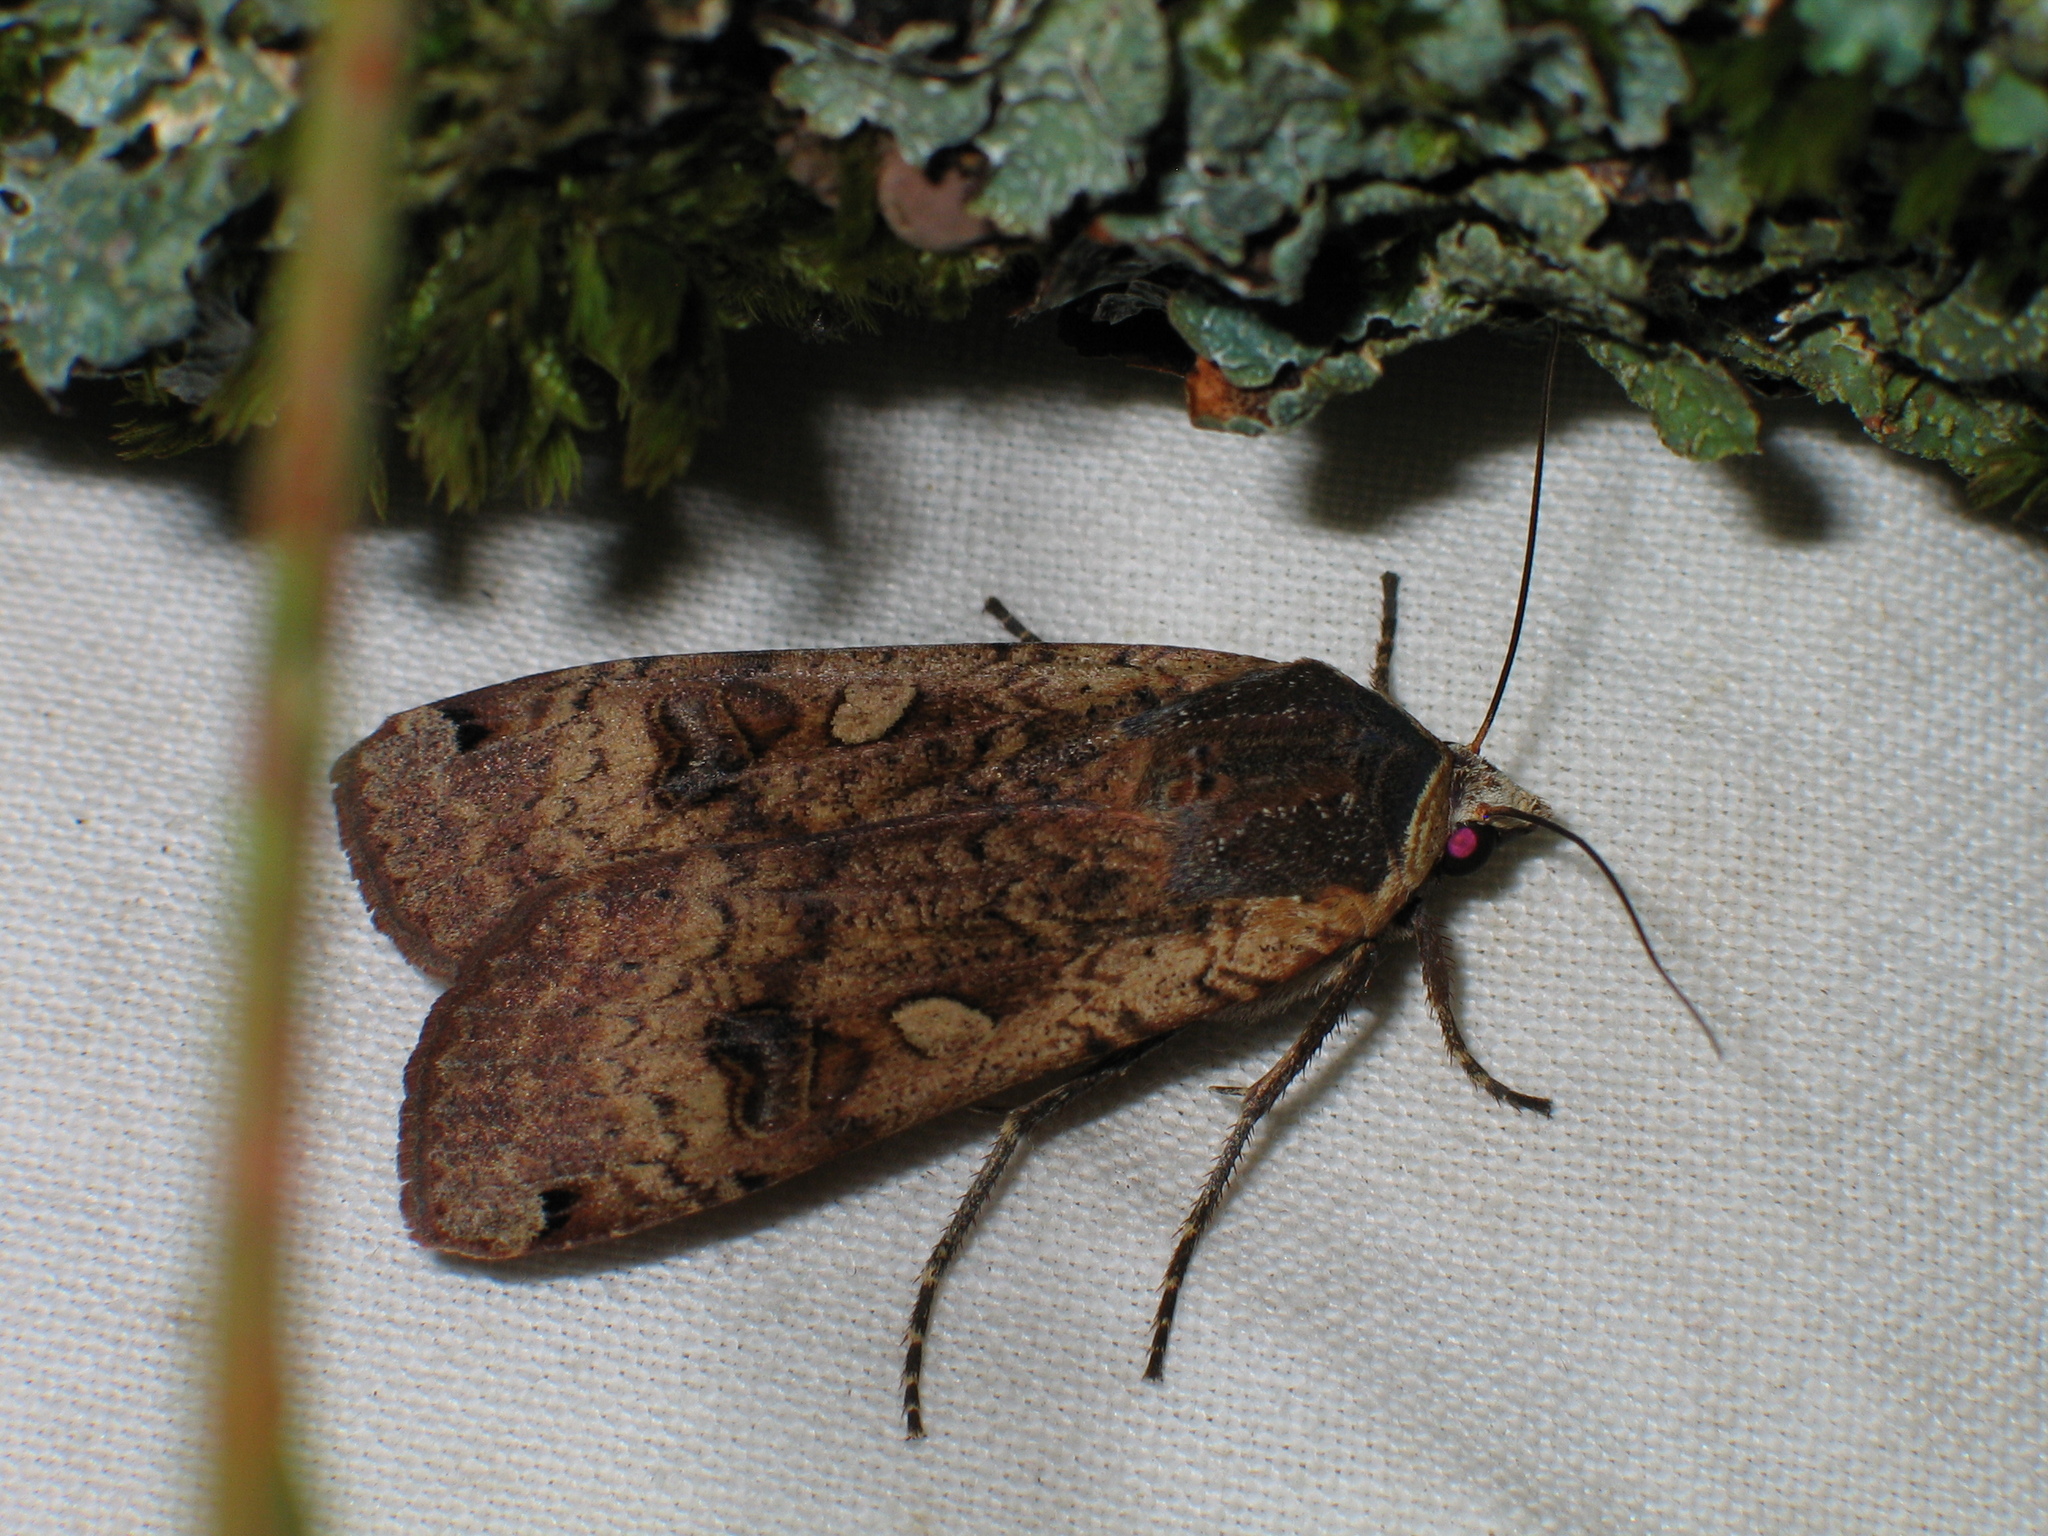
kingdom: Animalia
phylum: Arthropoda
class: Insecta
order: Lepidoptera
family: Noctuidae
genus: Noctua
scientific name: Noctua pronuba
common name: Large yellow underwing
